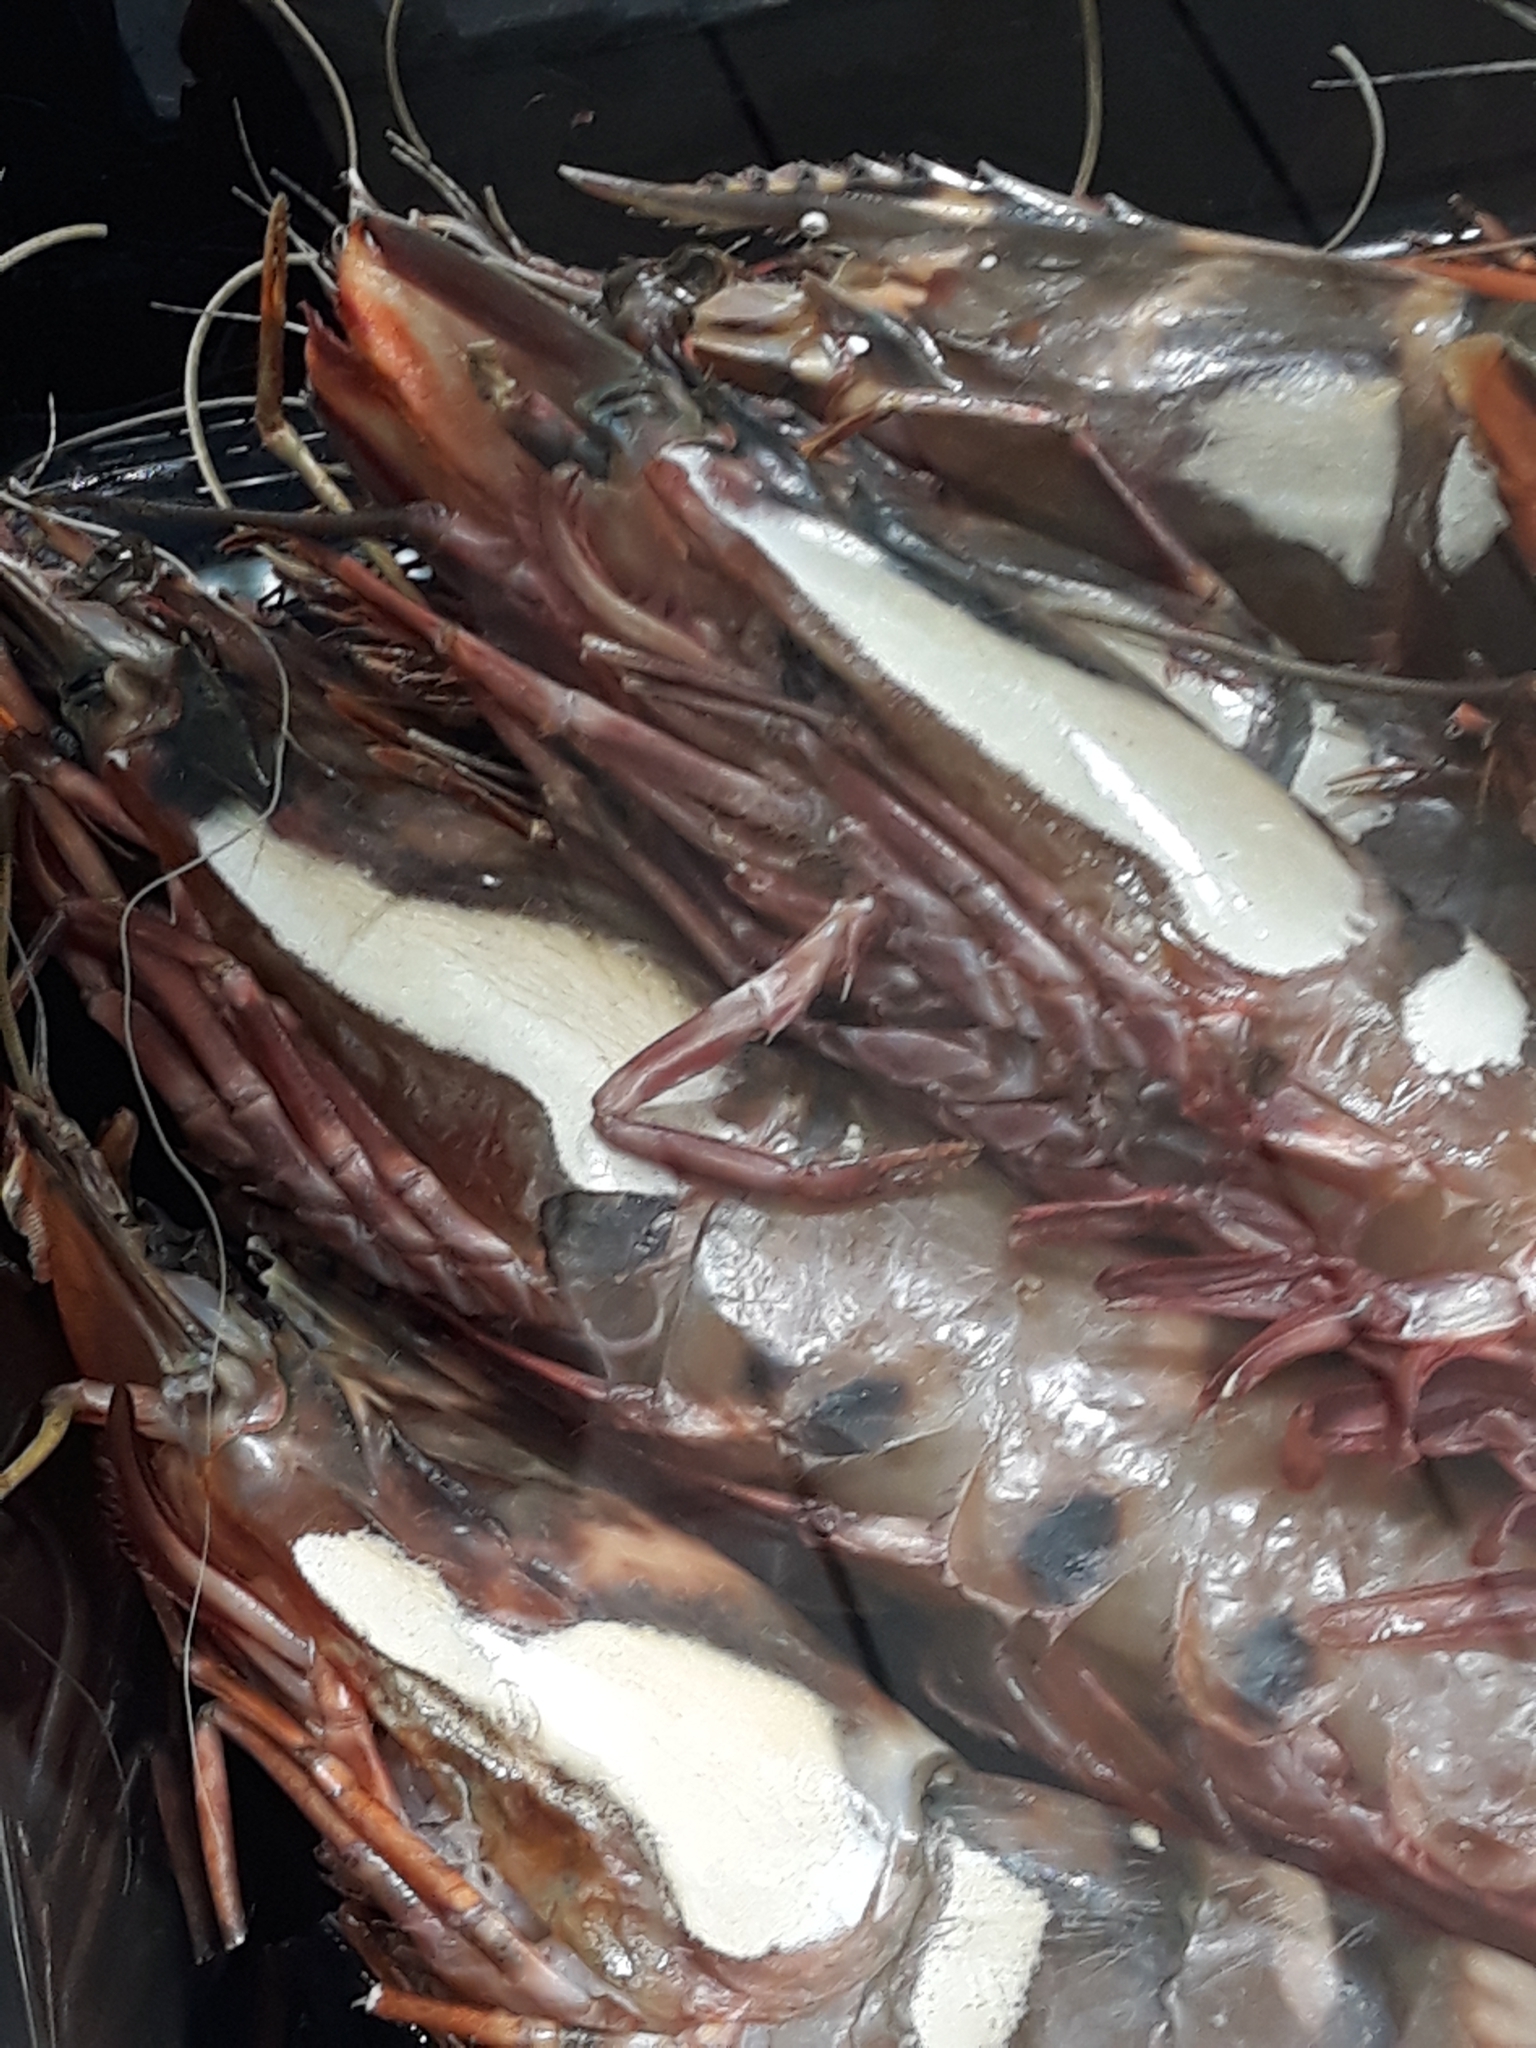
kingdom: Animalia
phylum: Arthropoda
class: Malacostraca
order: Decapoda
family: Penaeidae
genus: Penaeus
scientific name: Penaeus monodon
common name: Giant tiger prawn
